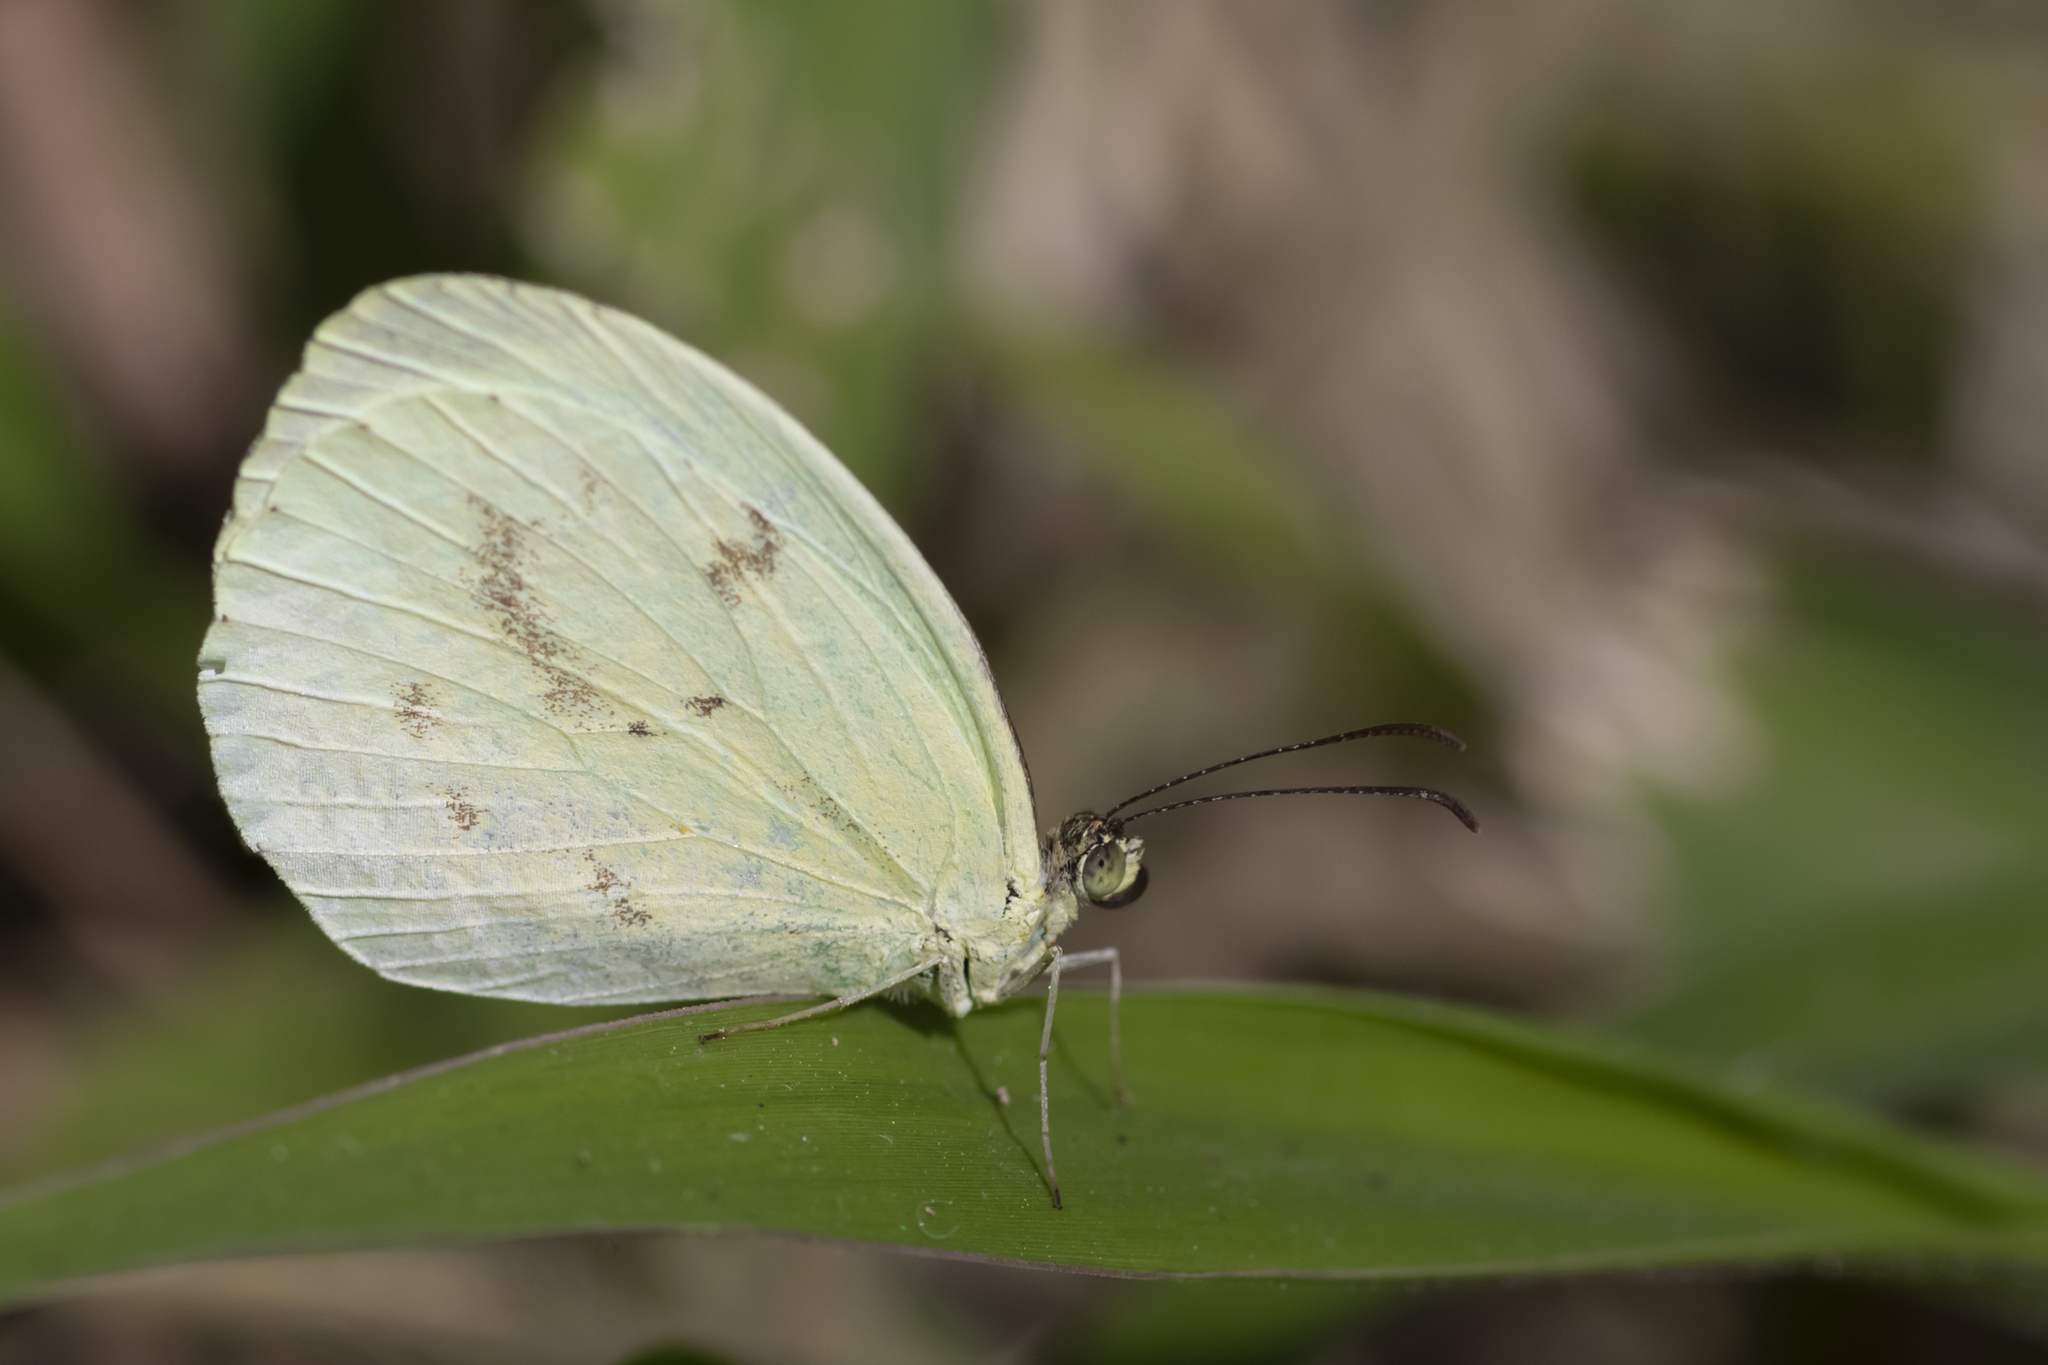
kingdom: Animalia
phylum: Arthropoda
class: Insecta
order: Lepidoptera
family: Pieridae
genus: Abaeis
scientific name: Abaeis albula
